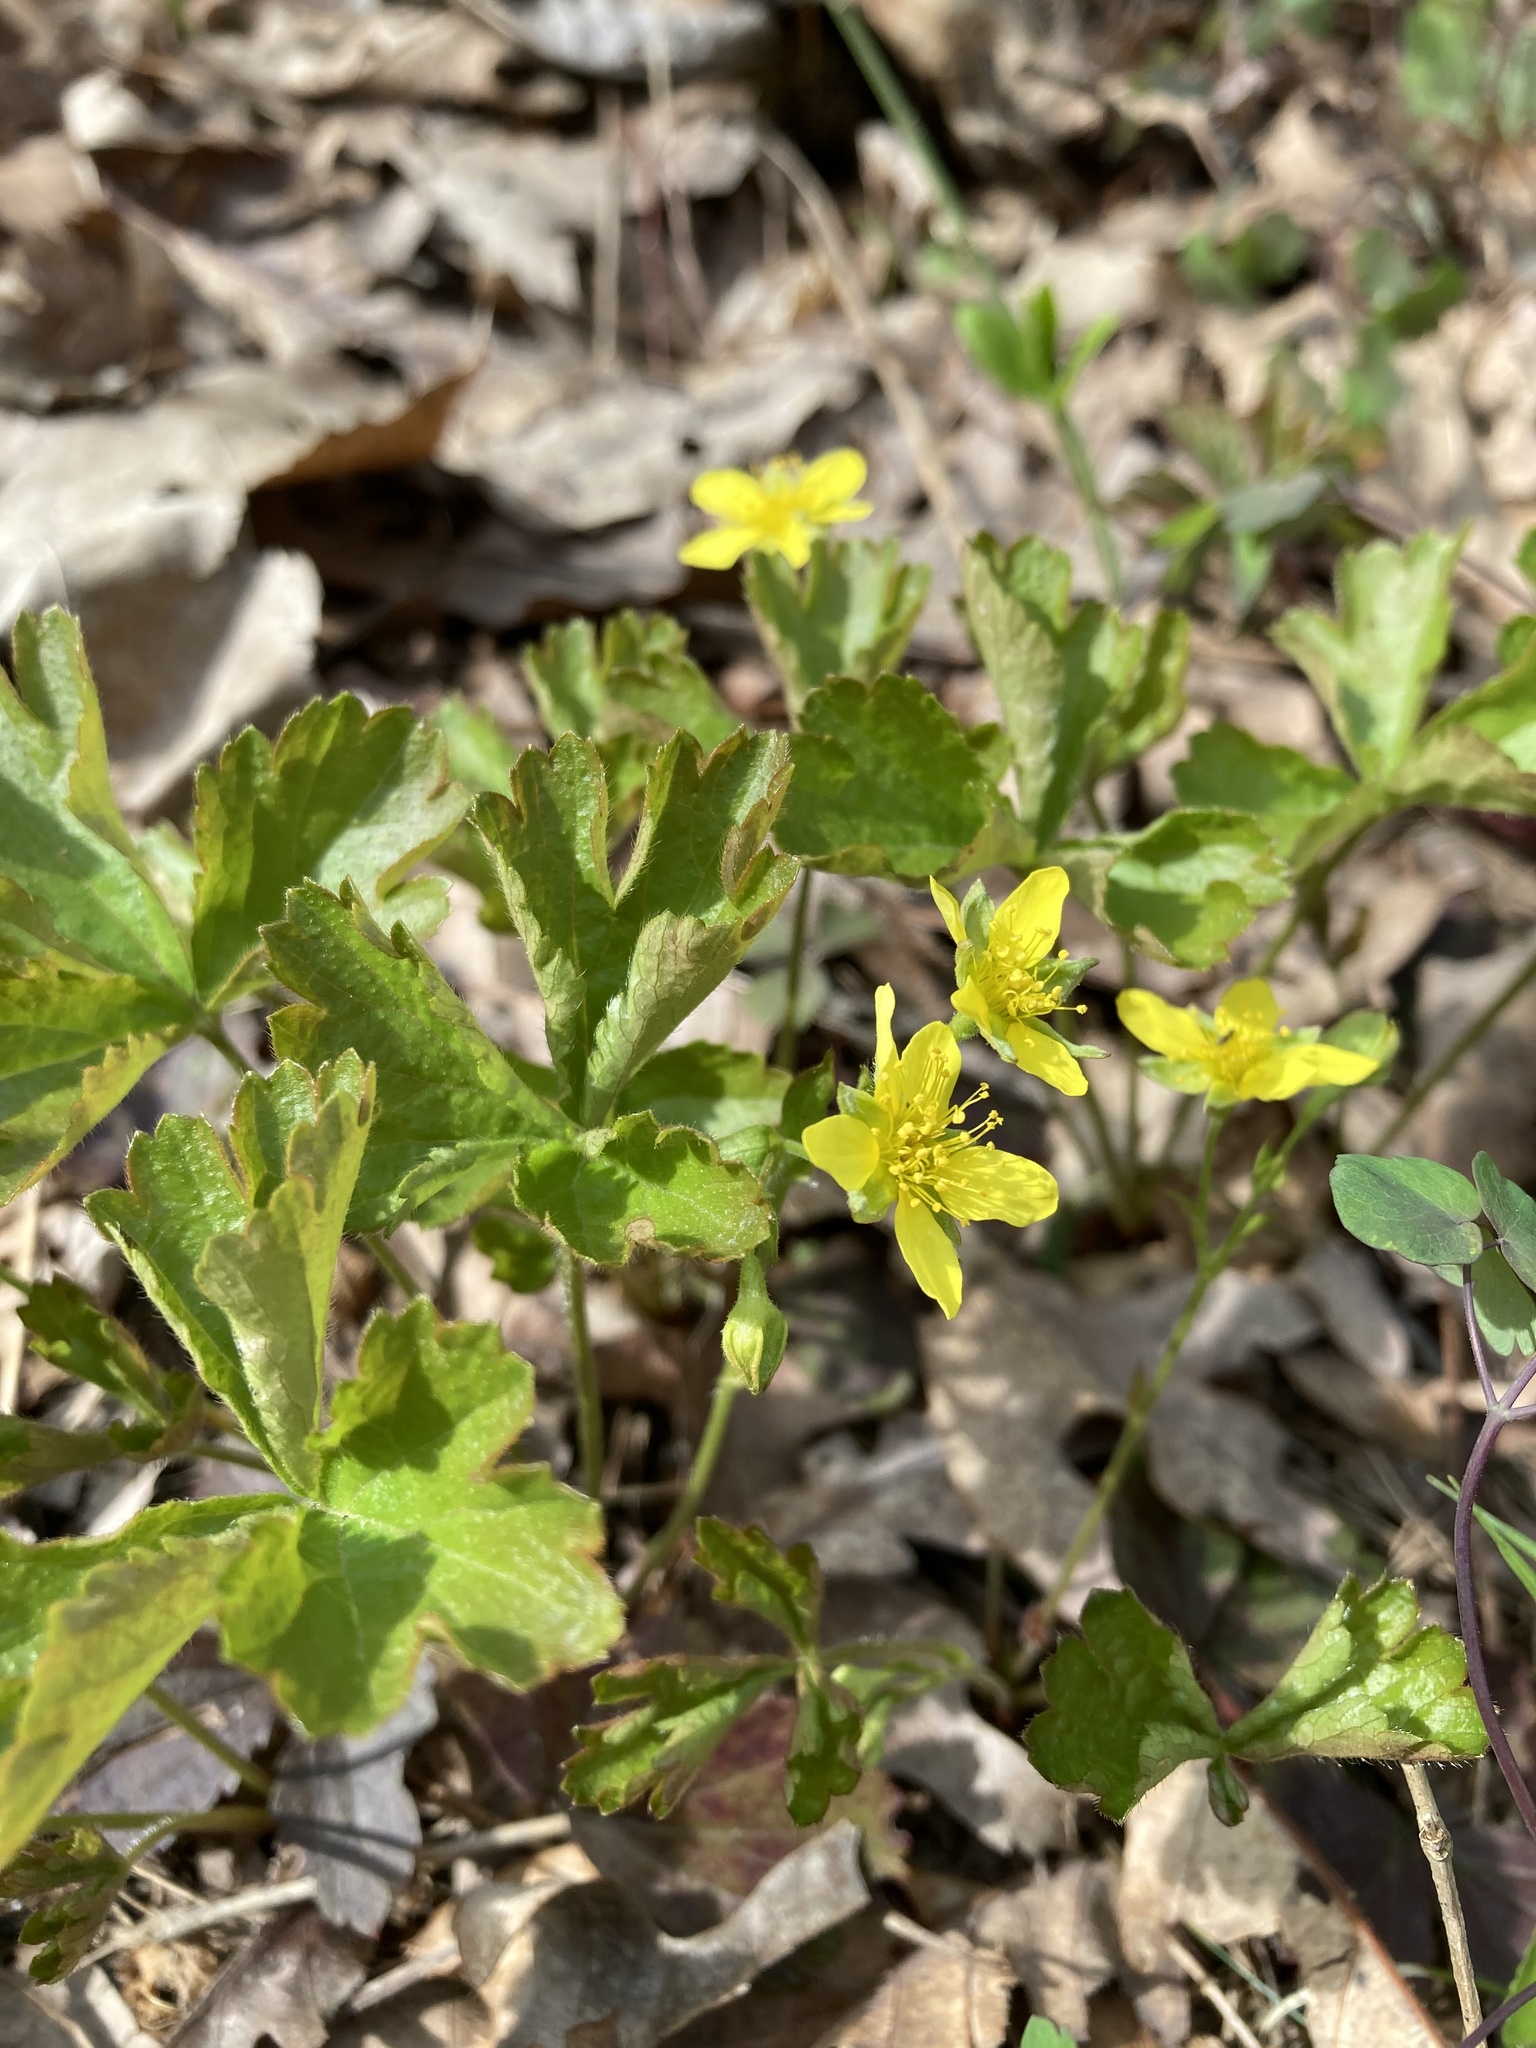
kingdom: Plantae
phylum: Tracheophyta
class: Magnoliopsida
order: Rosales
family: Rosaceae
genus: Geum
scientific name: Geum fragarioides
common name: Appalachian barren strawberry
